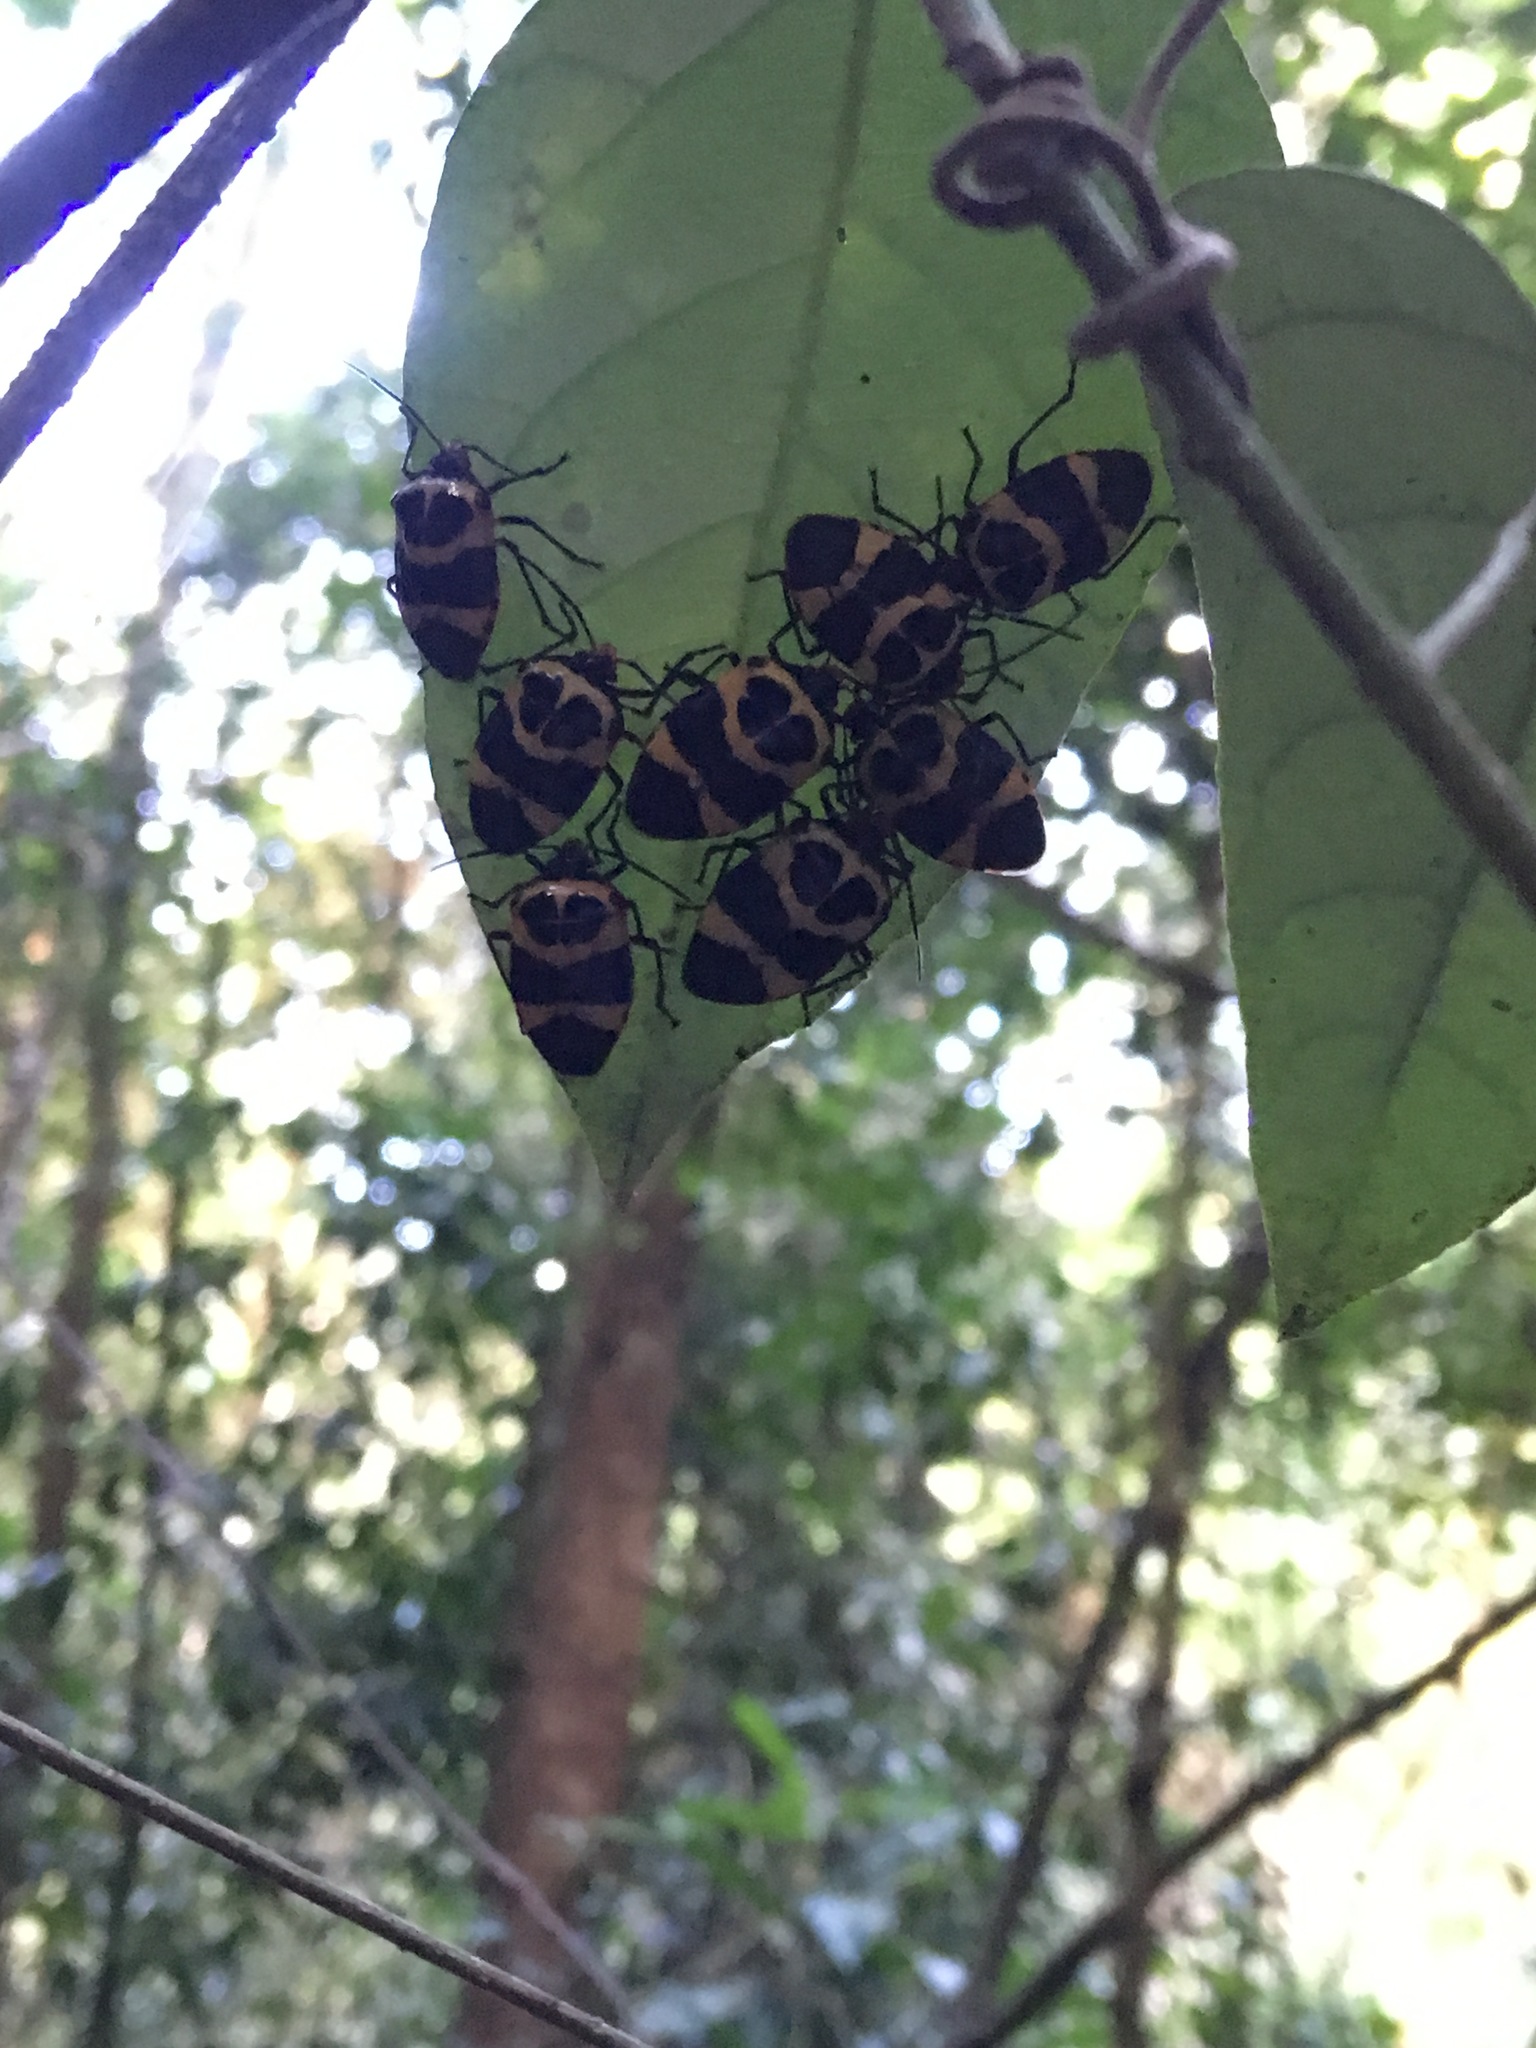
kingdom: Animalia
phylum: Arthropoda
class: Insecta
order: Hemiptera
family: Pentatomidae
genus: Arocera
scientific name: Arocera
